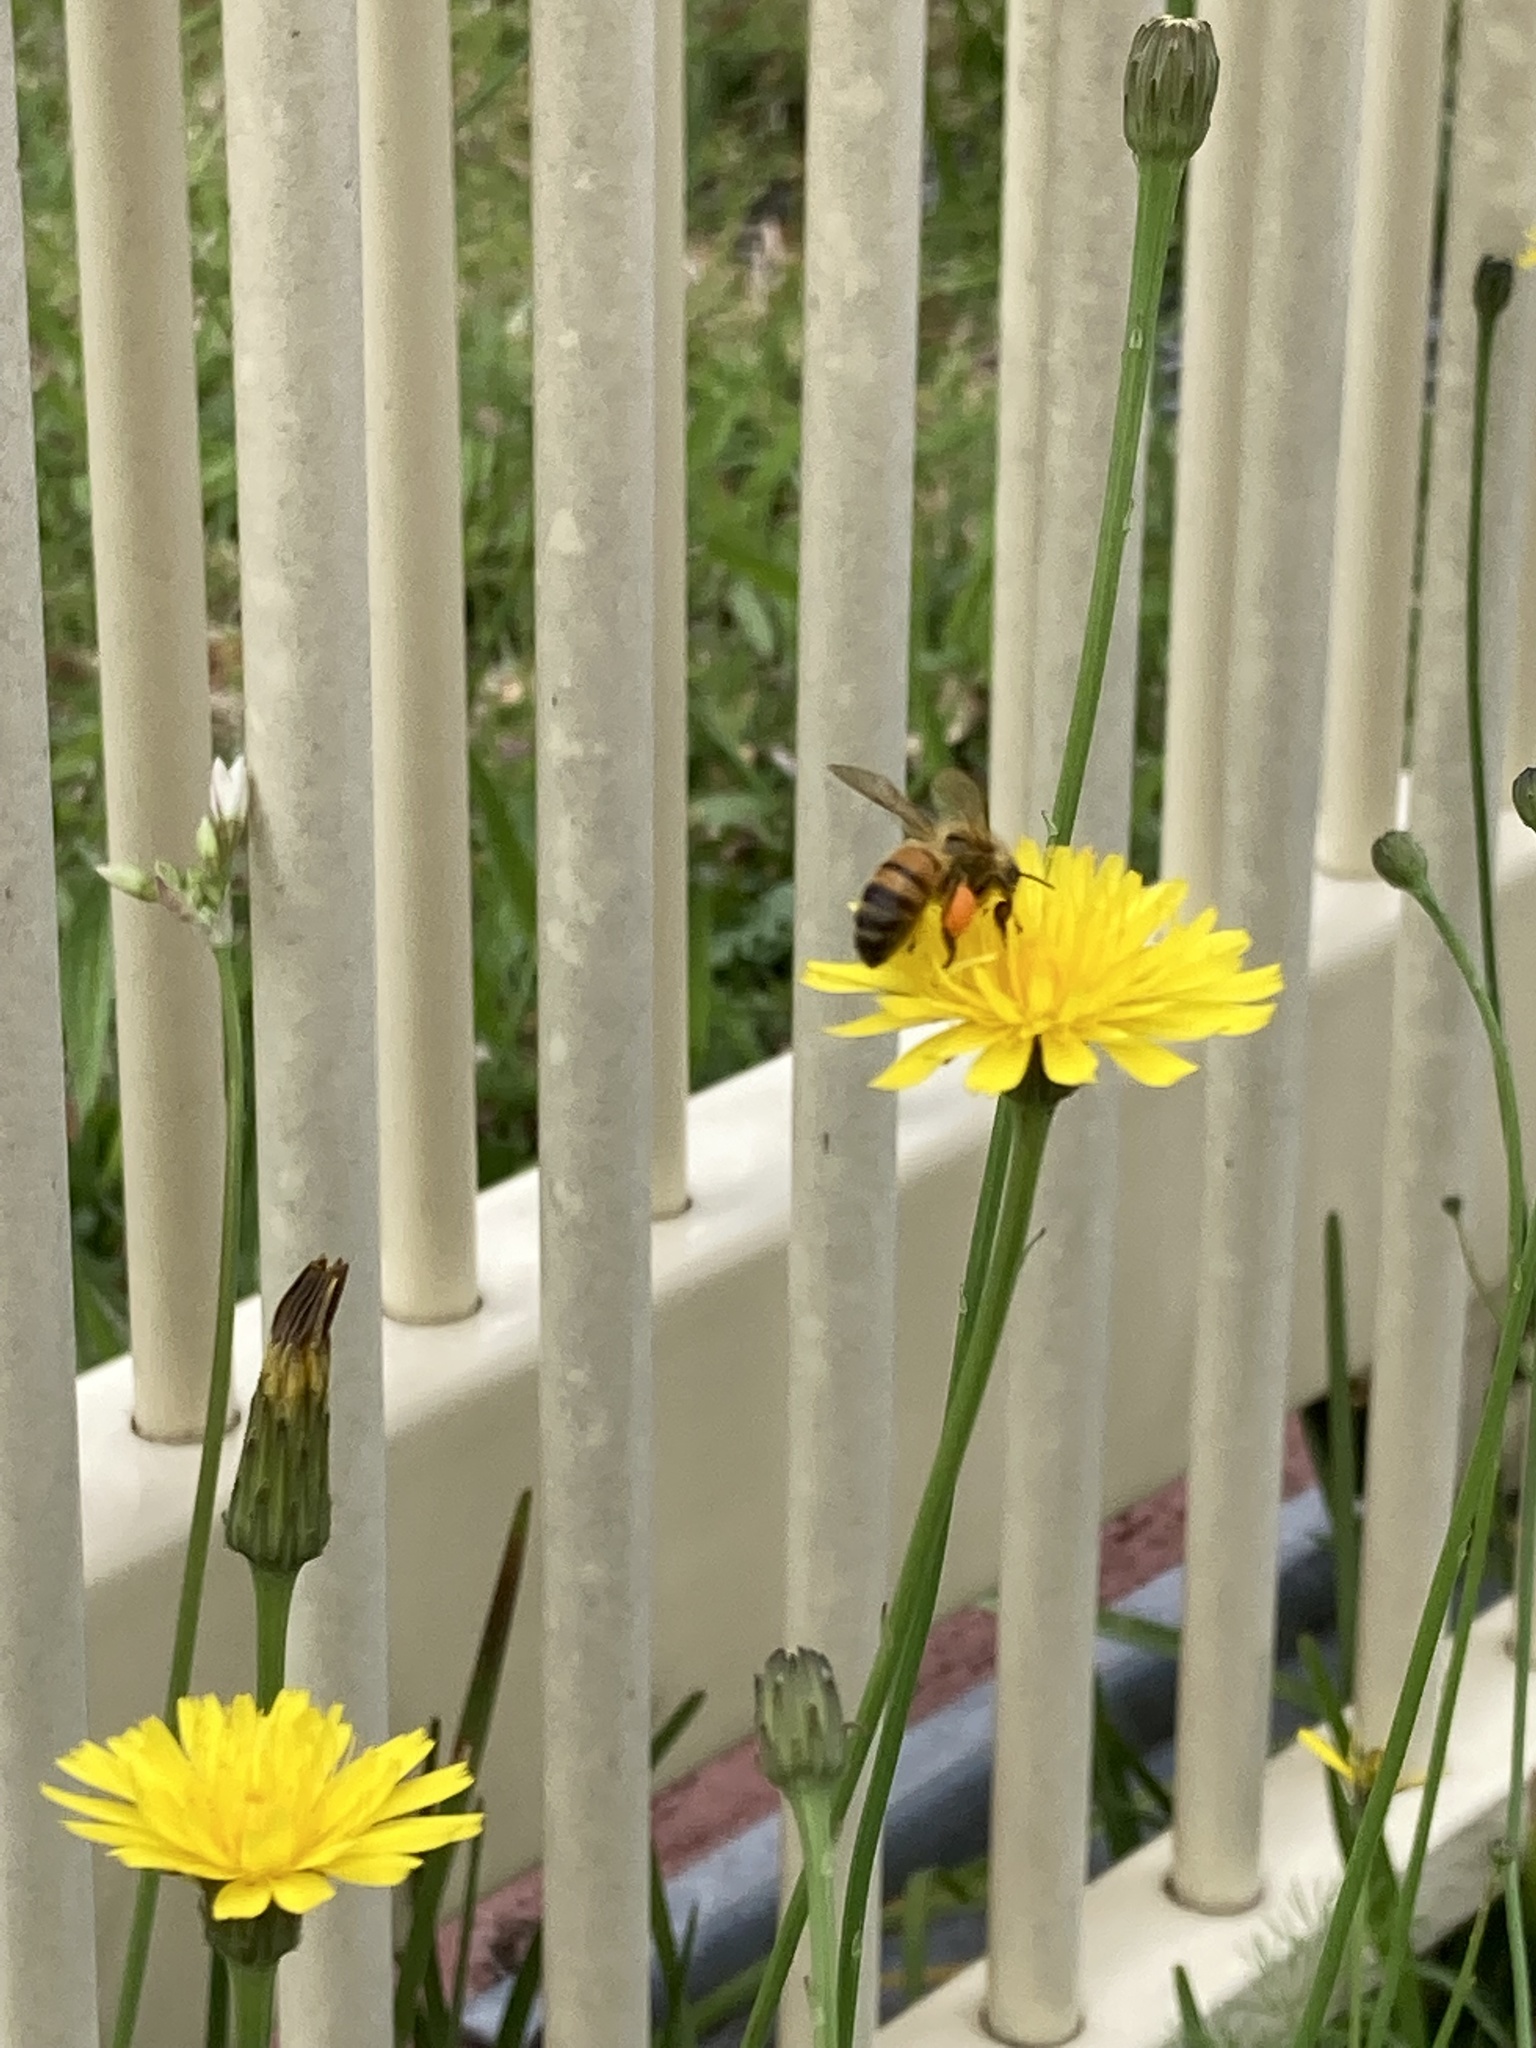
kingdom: Animalia
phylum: Arthropoda
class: Insecta
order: Hymenoptera
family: Apidae
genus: Apis
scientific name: Apis mellifera
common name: Honey bee
